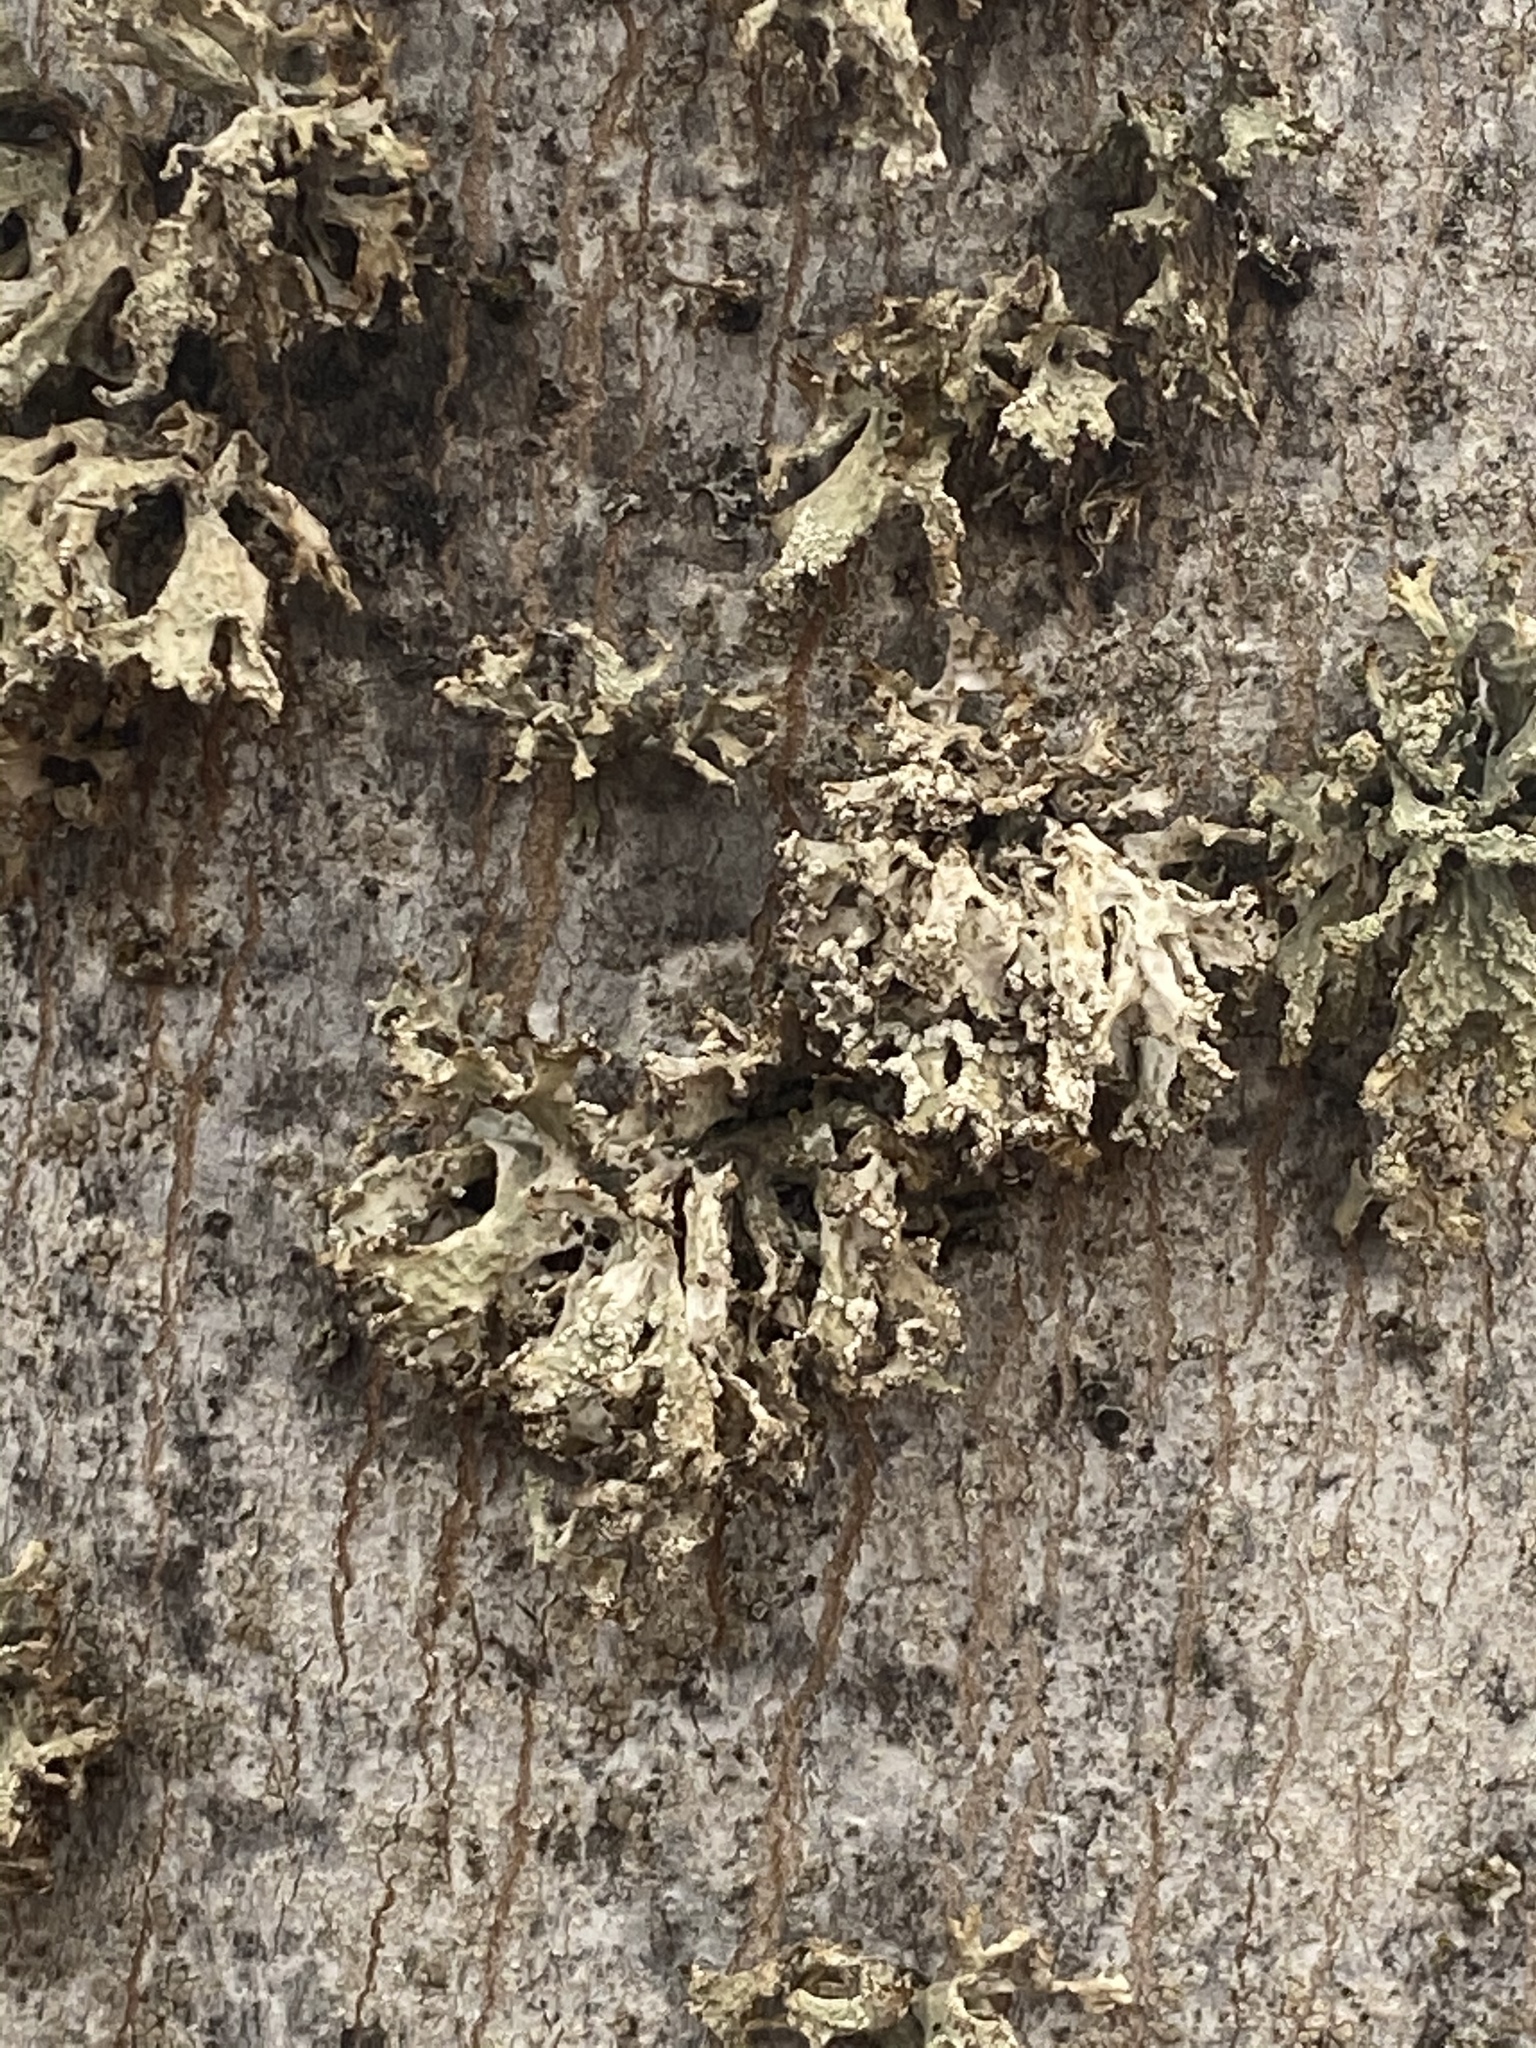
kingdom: Fungi
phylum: Ascomycota
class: Lecanoromycetes
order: Lecanorales
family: Parmeliaceae
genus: Evernia
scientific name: Evernia prunastri
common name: Oak moss
